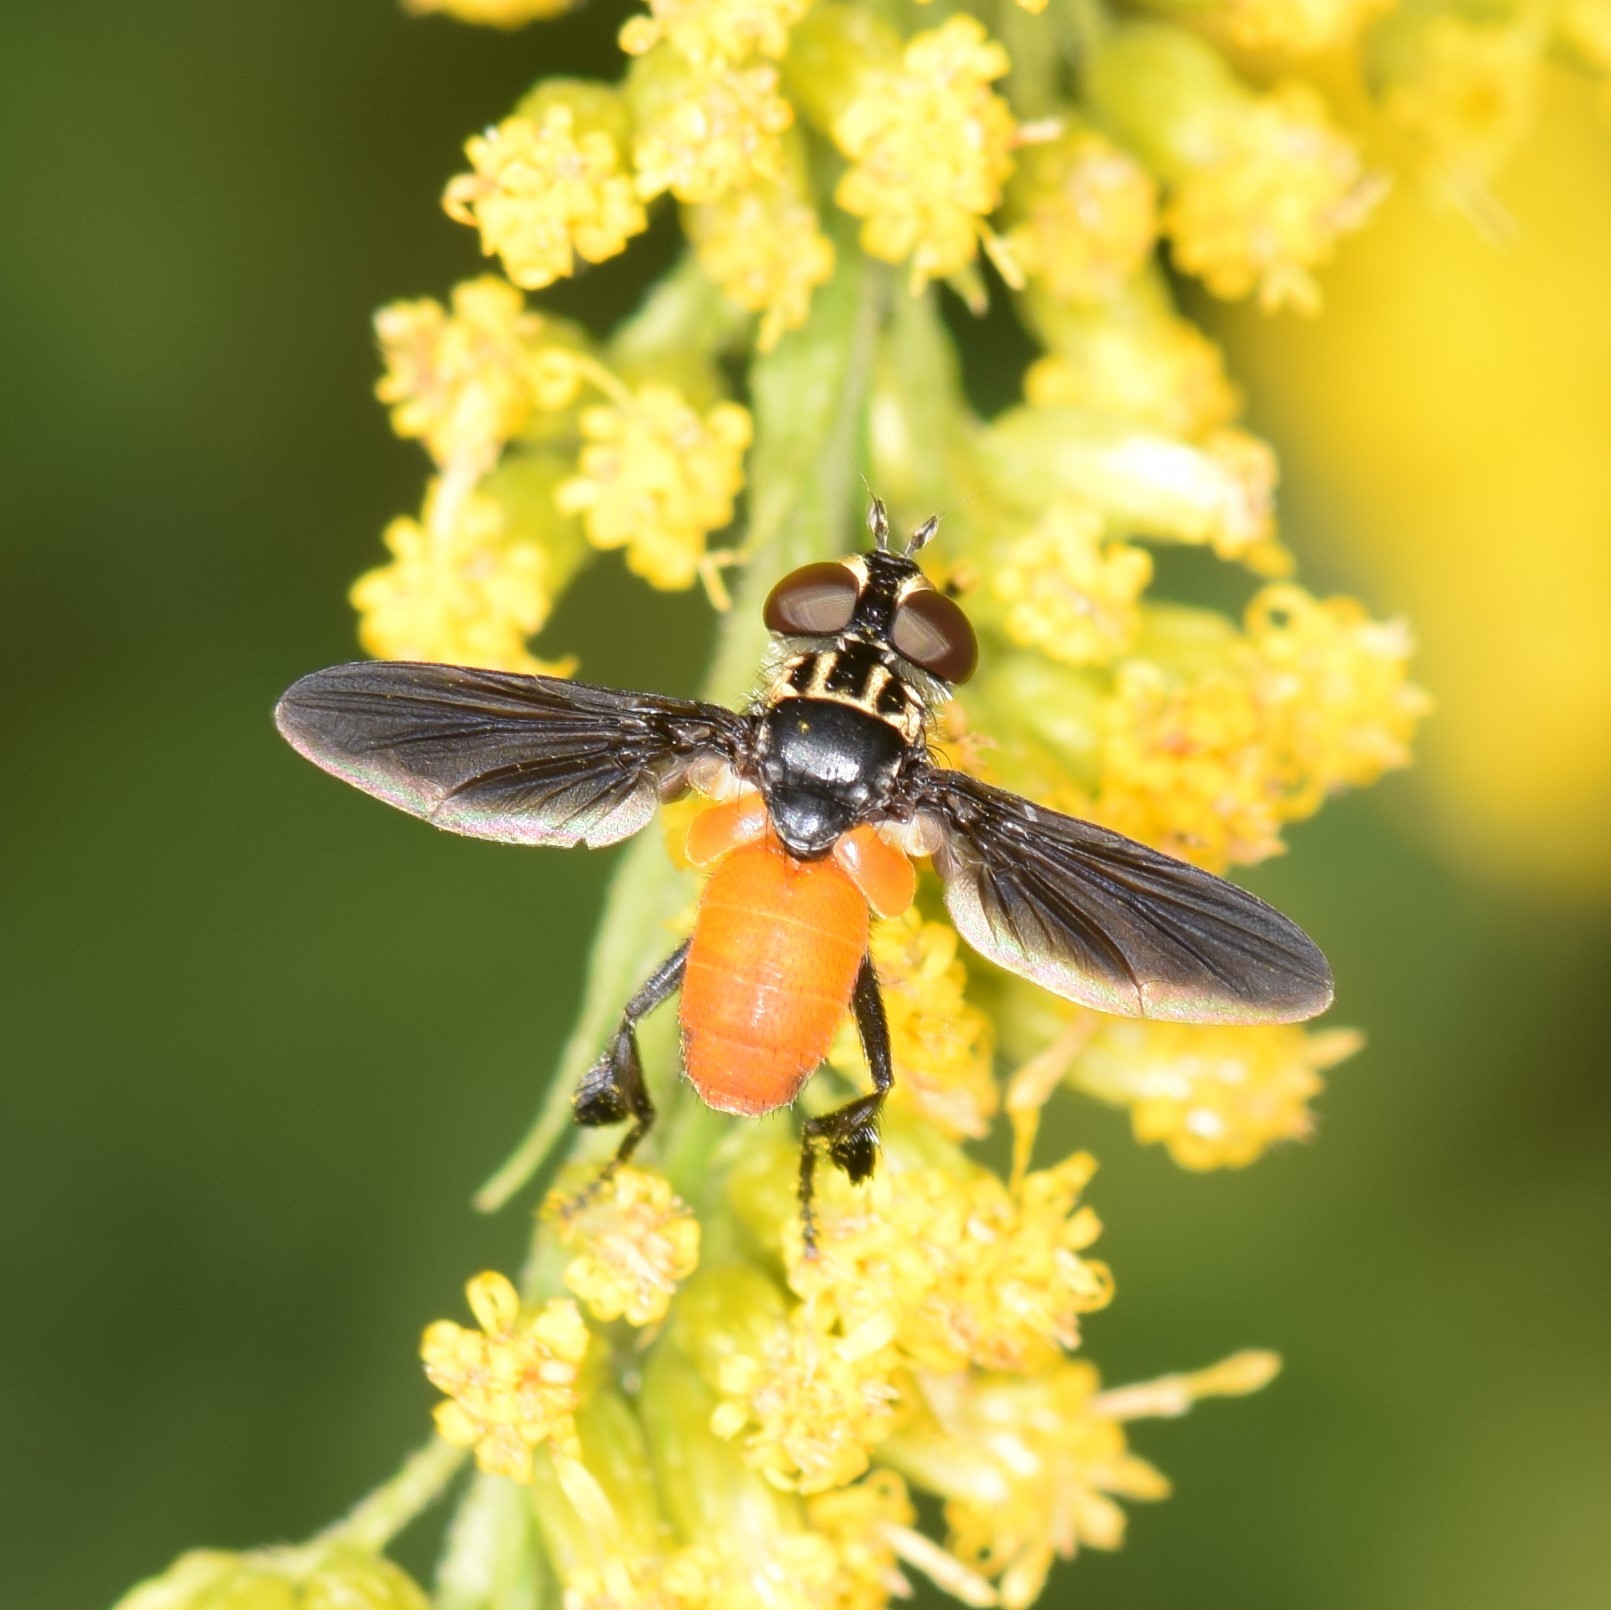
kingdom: Animalia
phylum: Arthropoda
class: Insecta
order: Diptera
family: Tachinidae
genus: Trichopoda
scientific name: Trichopoda pennipes
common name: Tachinid fly
